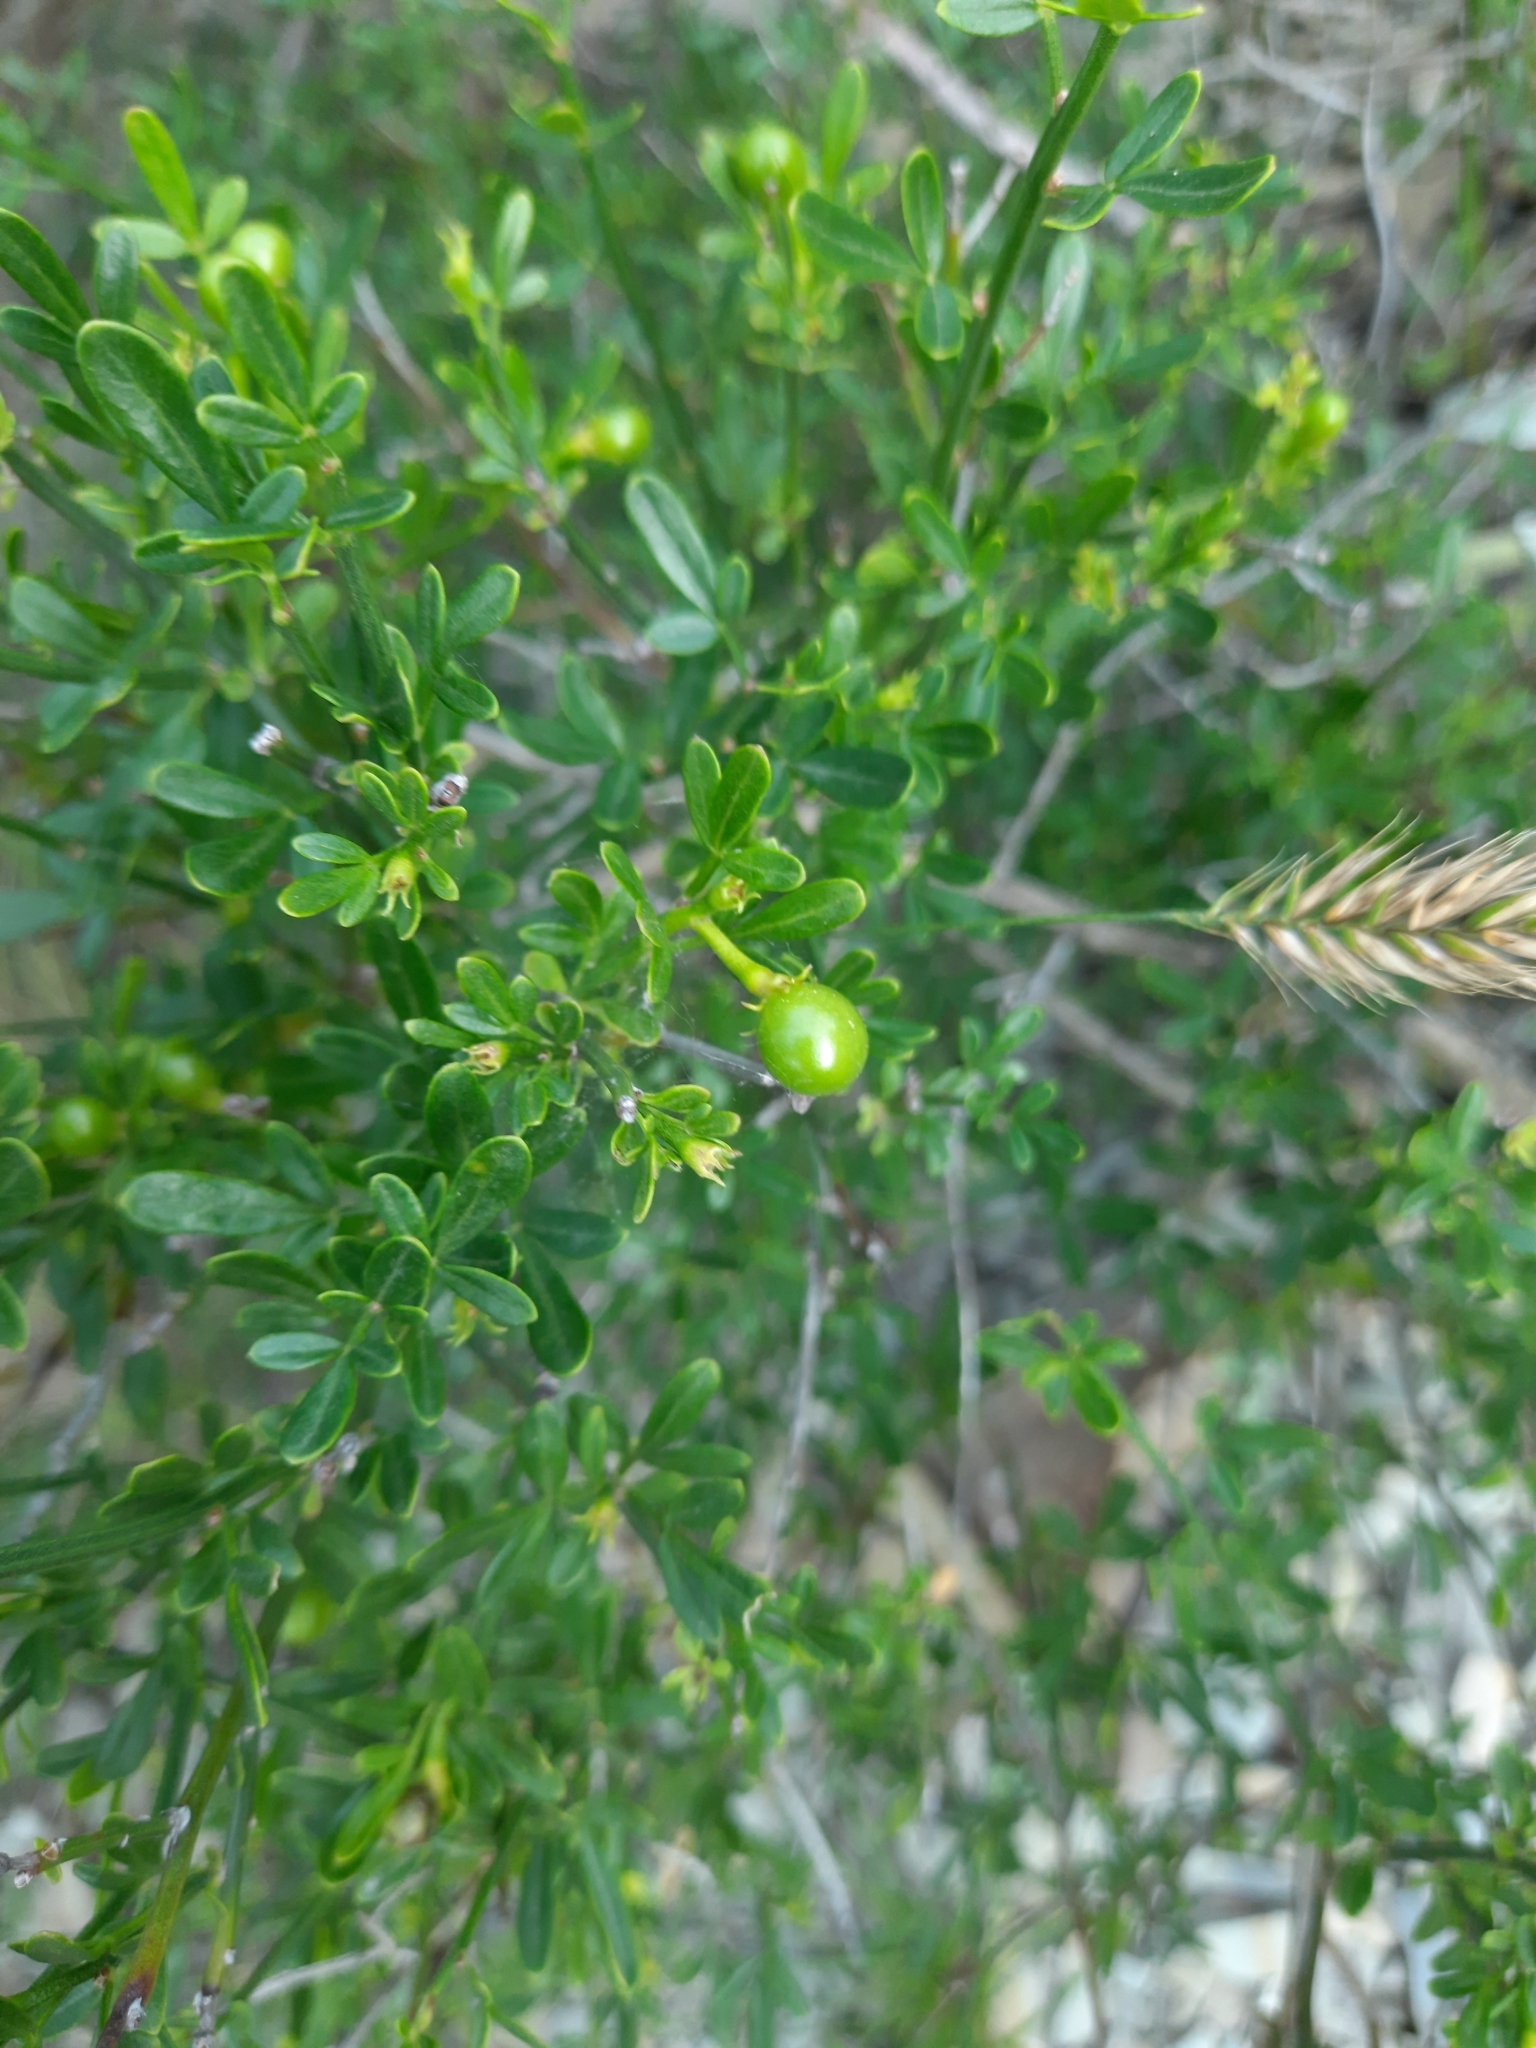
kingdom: Plantae
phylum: Tracheophyta
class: Magnoliopsida
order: Lamiales
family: Oleaceae
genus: Chrysojasminum
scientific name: Chrysojasminum fruticans
